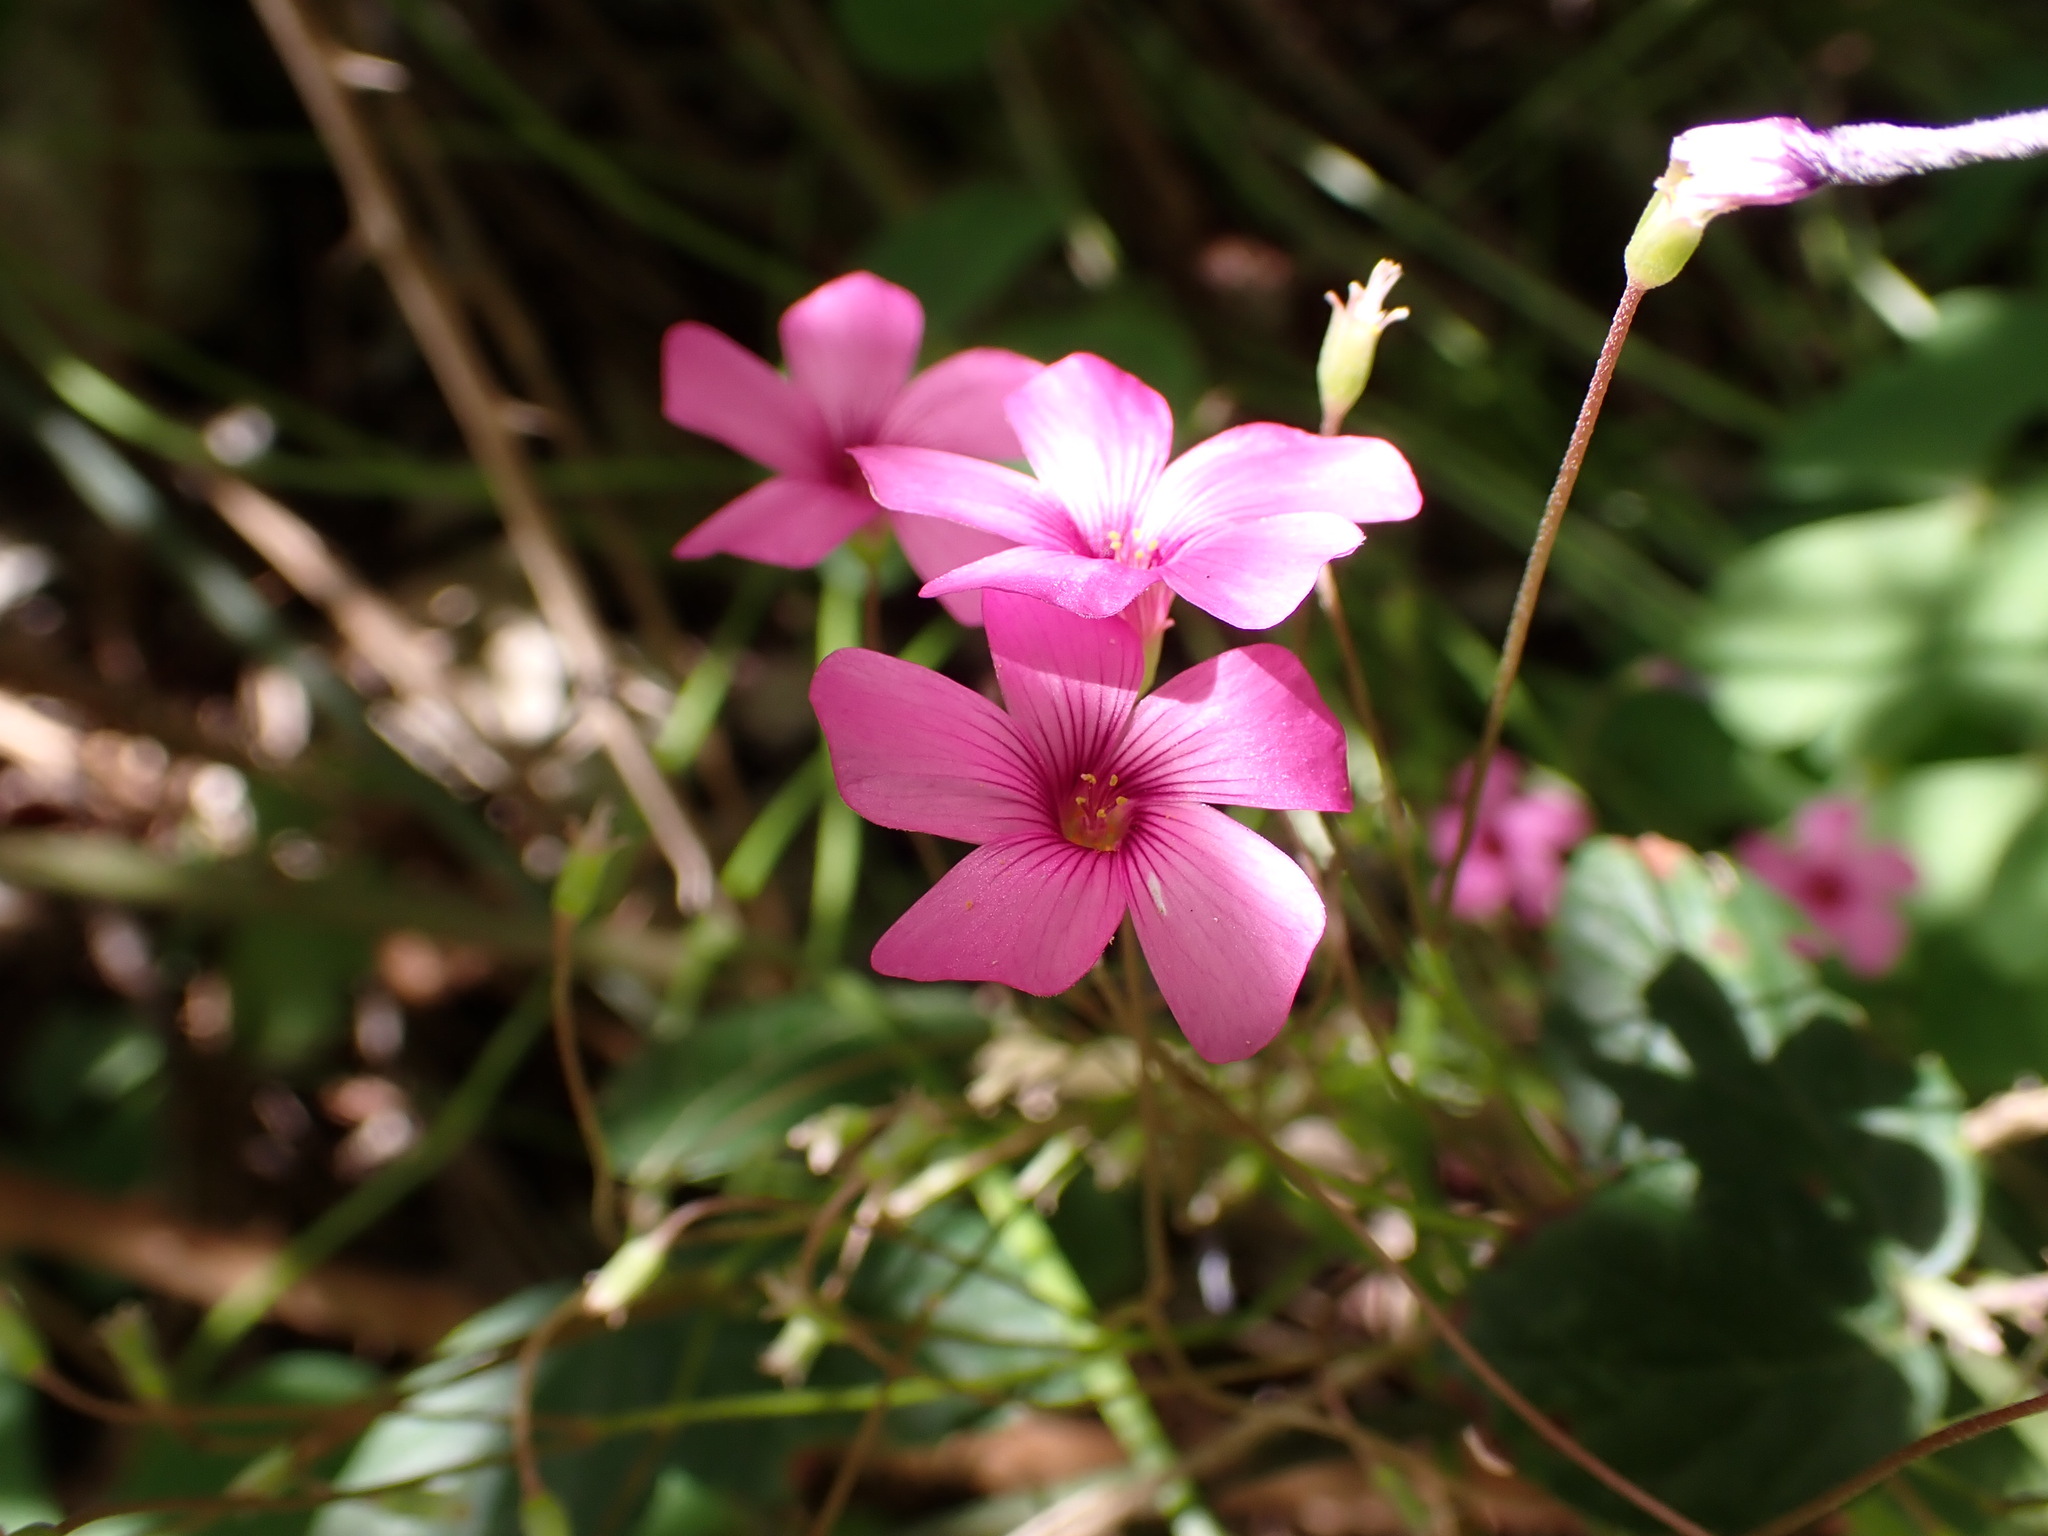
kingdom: Plantae
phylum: Tracheophyta
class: Magnoliopsida
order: Oxalidales
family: Oxalidaceae
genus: Oxalis
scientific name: Oxalis articulata
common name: Pink-sorrel
